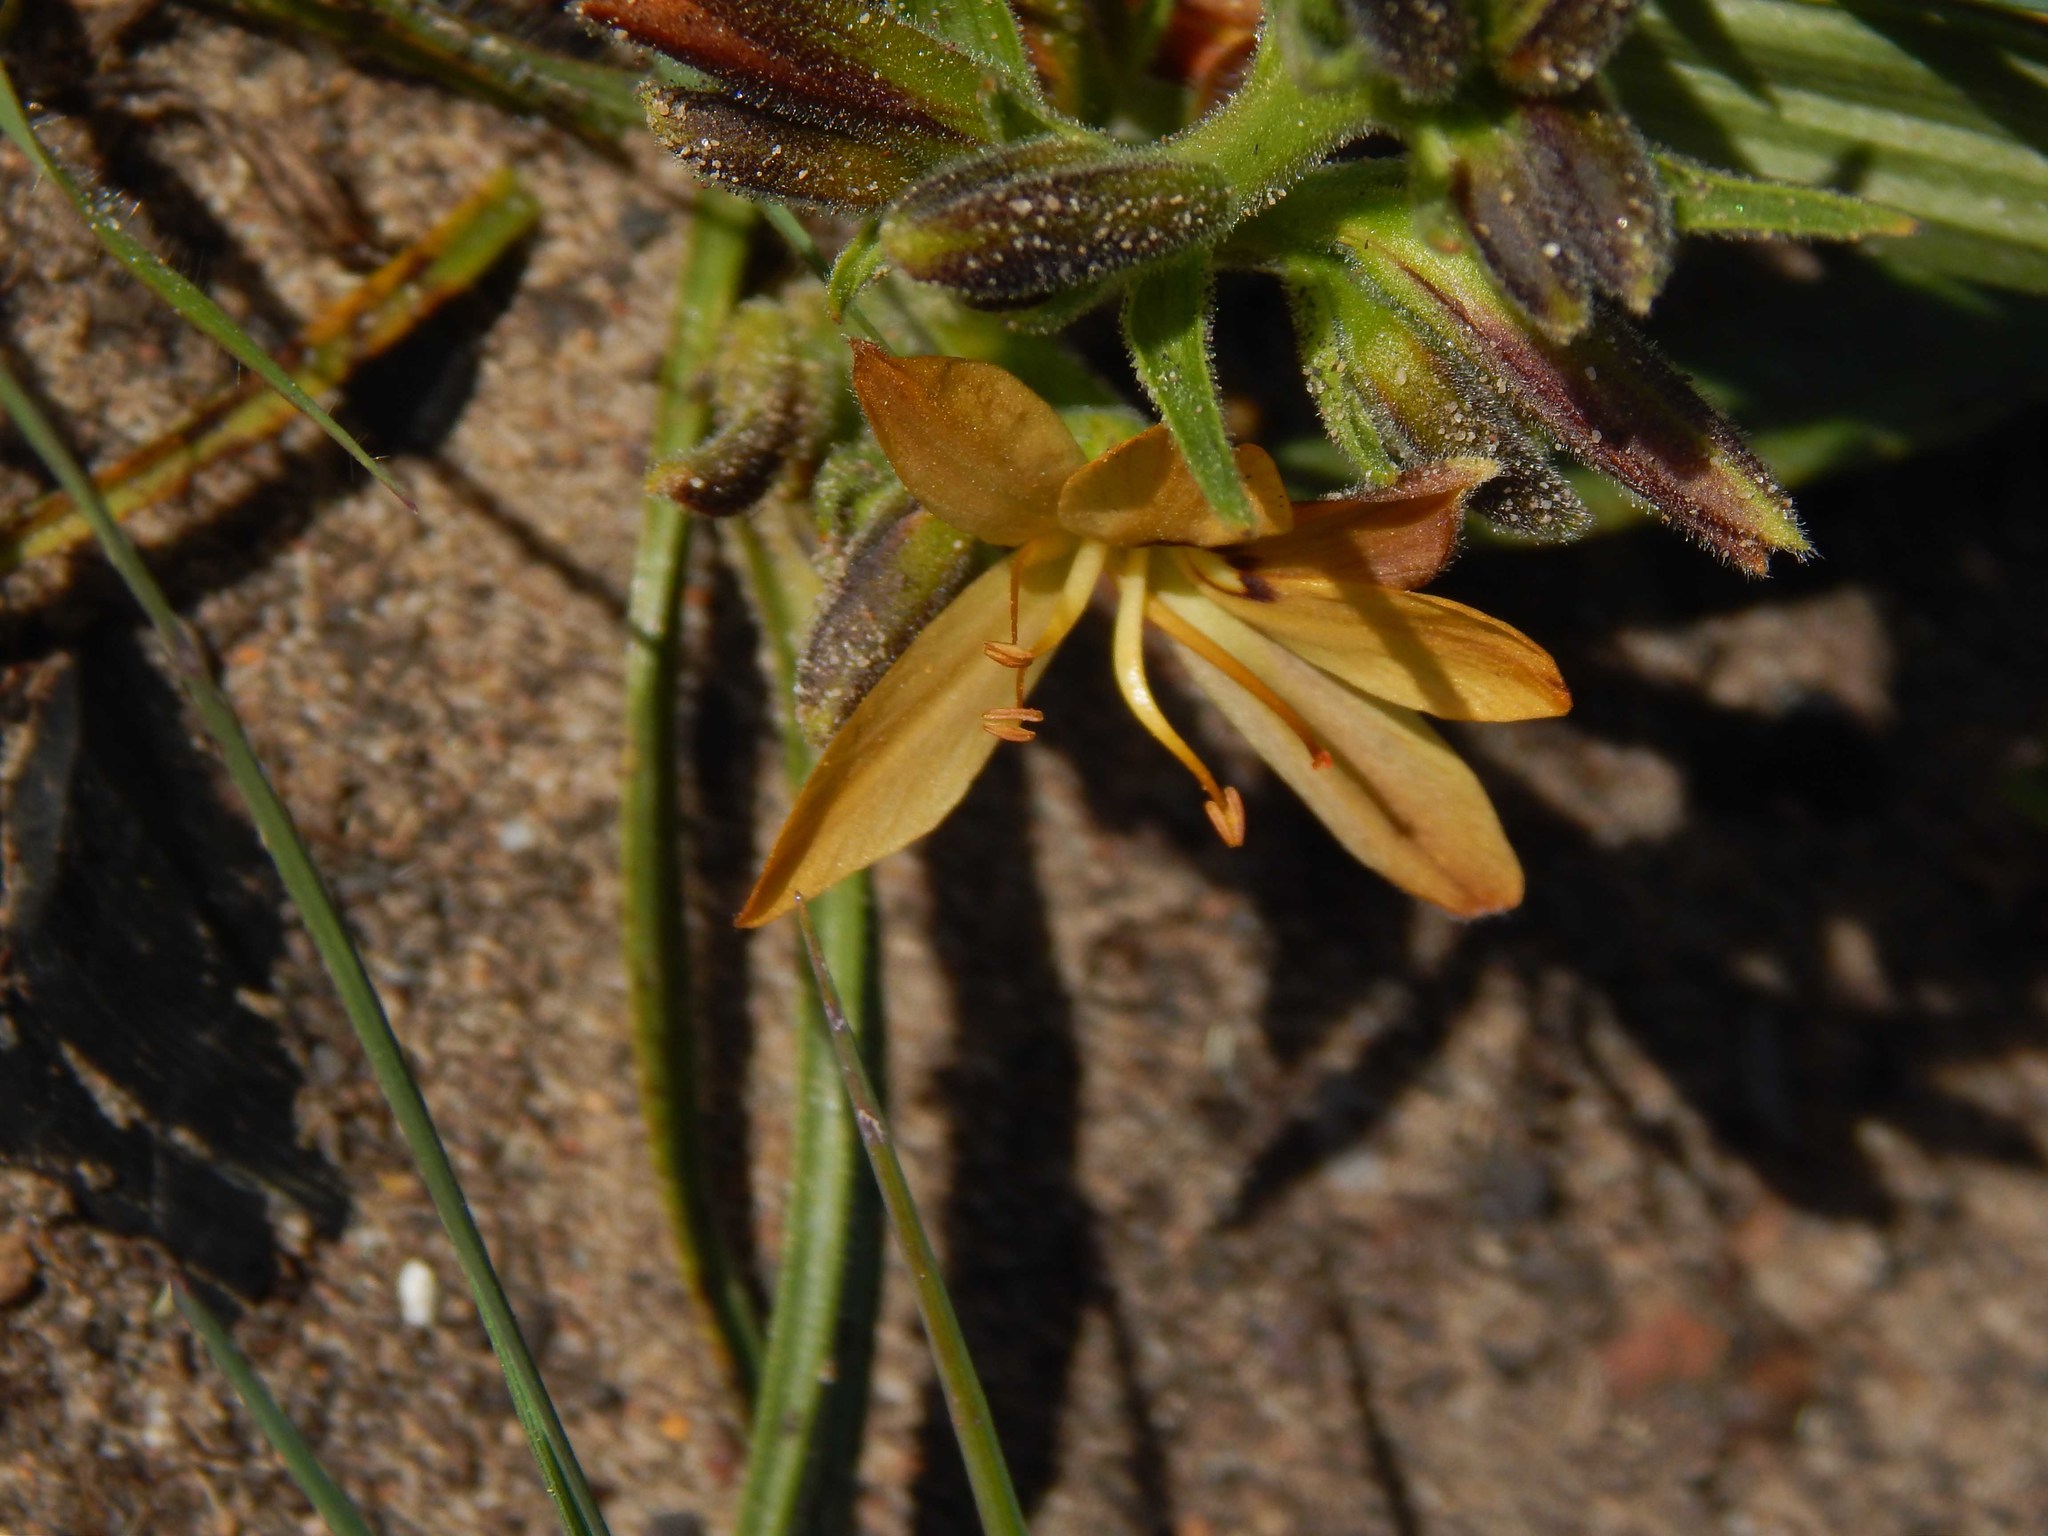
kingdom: Plantae
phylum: Tracheophyta
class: Liliopsida
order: Commelinales
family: Haemodoraceae
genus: Wachendorfia
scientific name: Wachendorfia multiflora
